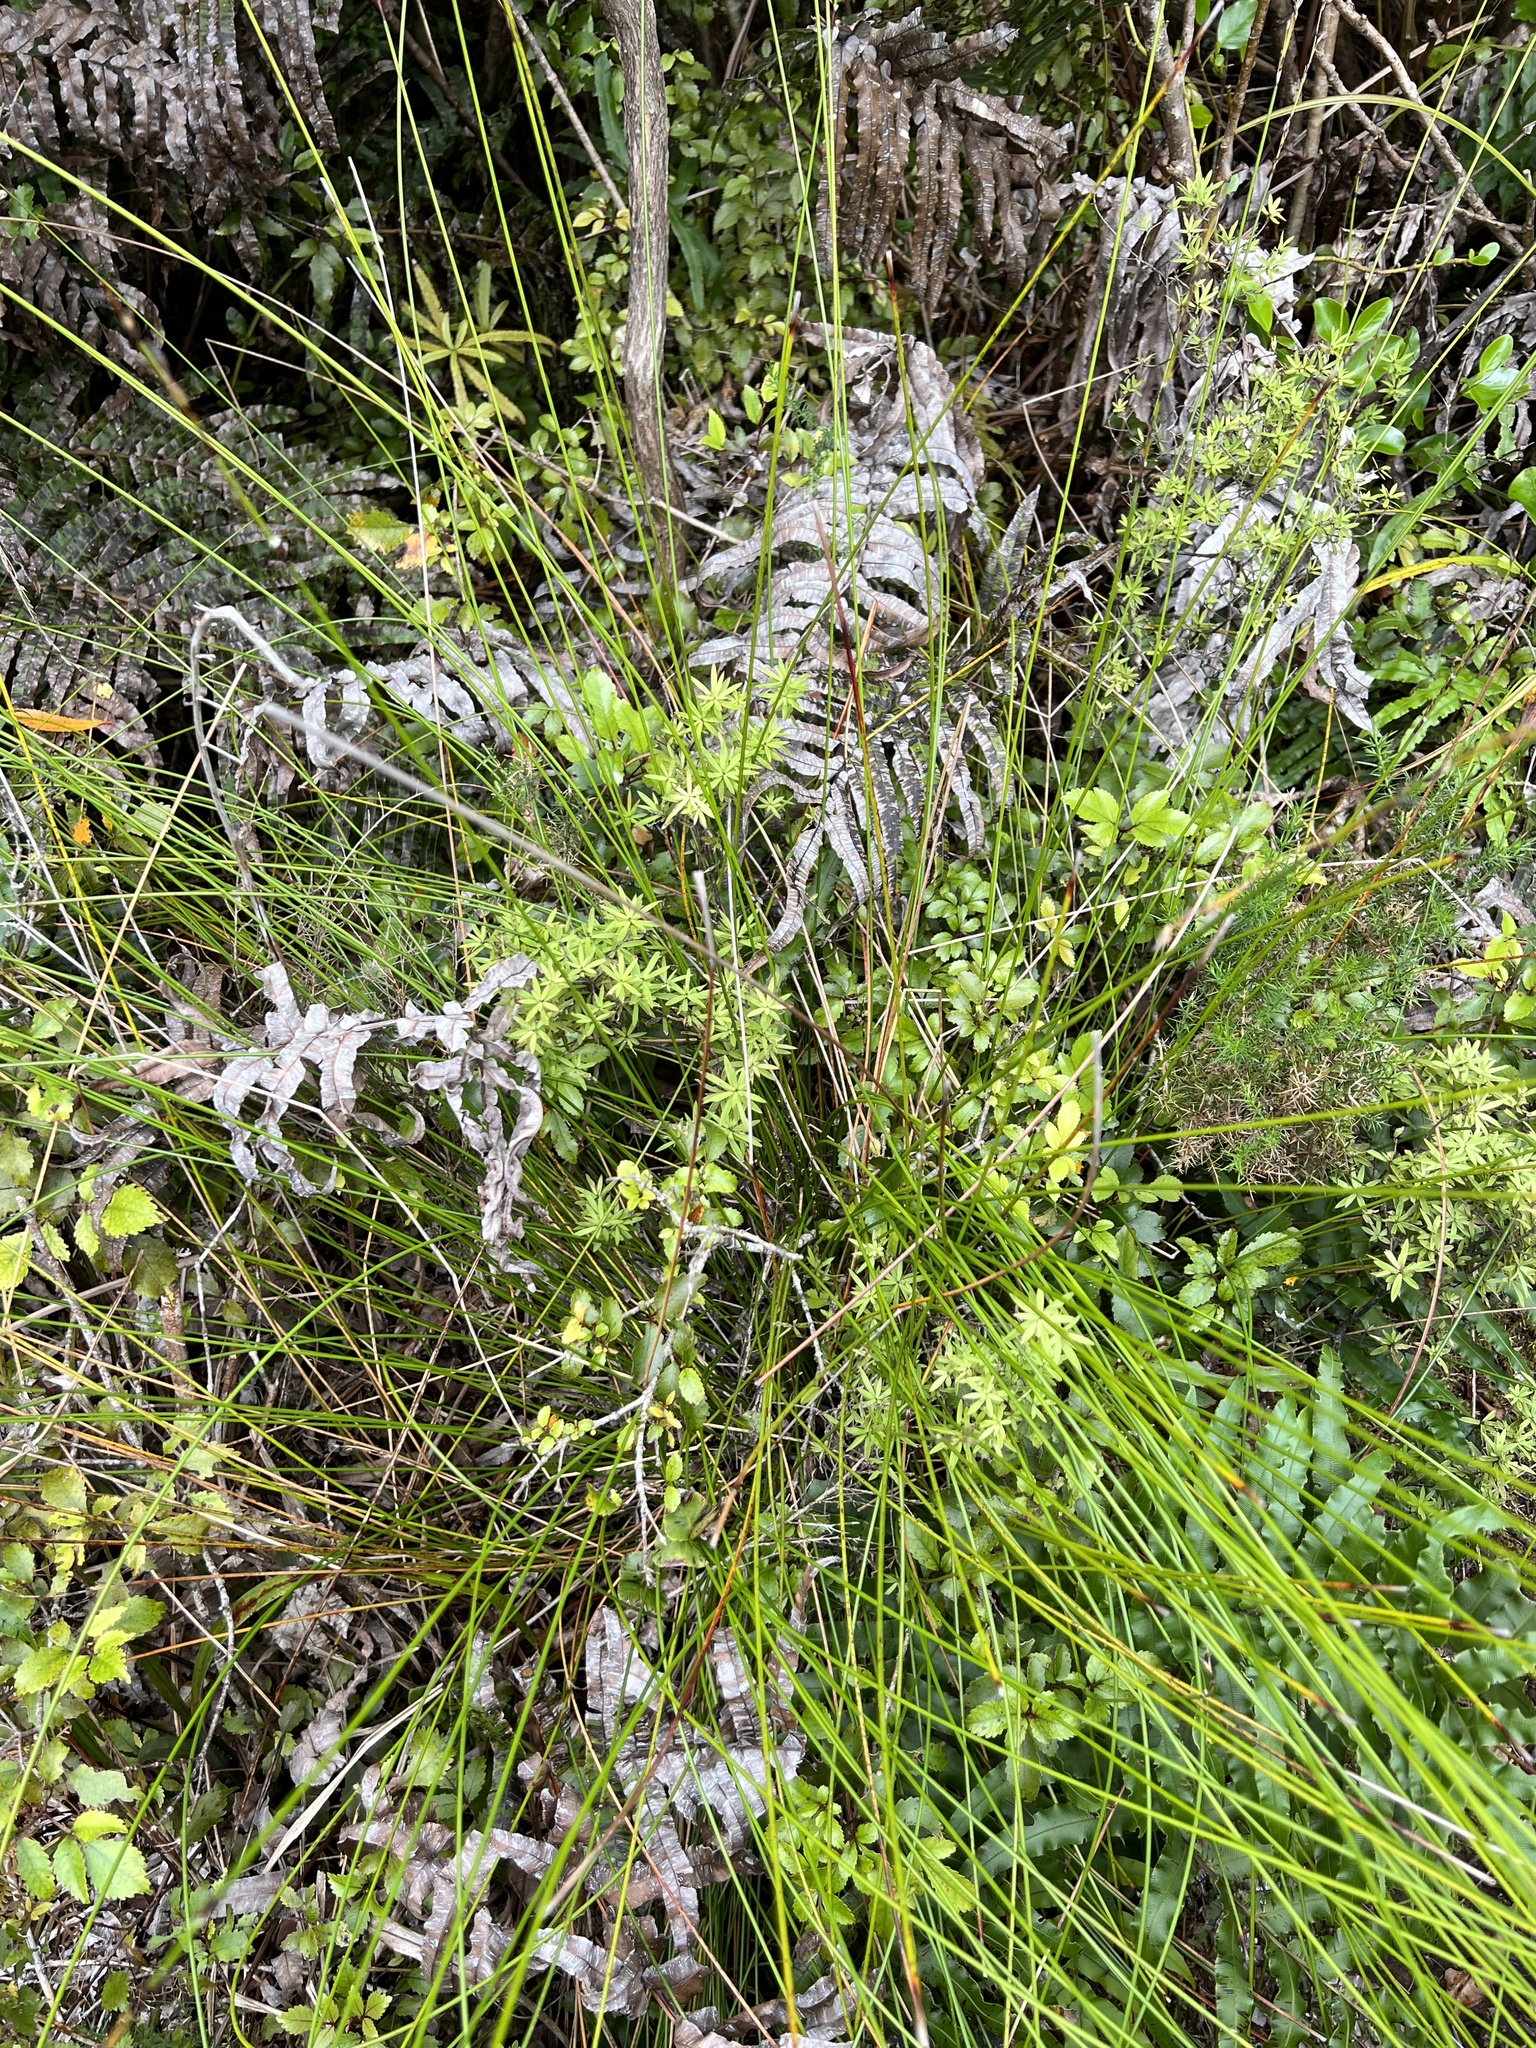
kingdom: Plantae
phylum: Tracheophyta
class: Liliopsida
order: Poales
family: Cyperaceae
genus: Schoenus
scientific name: Schoenus tendo
